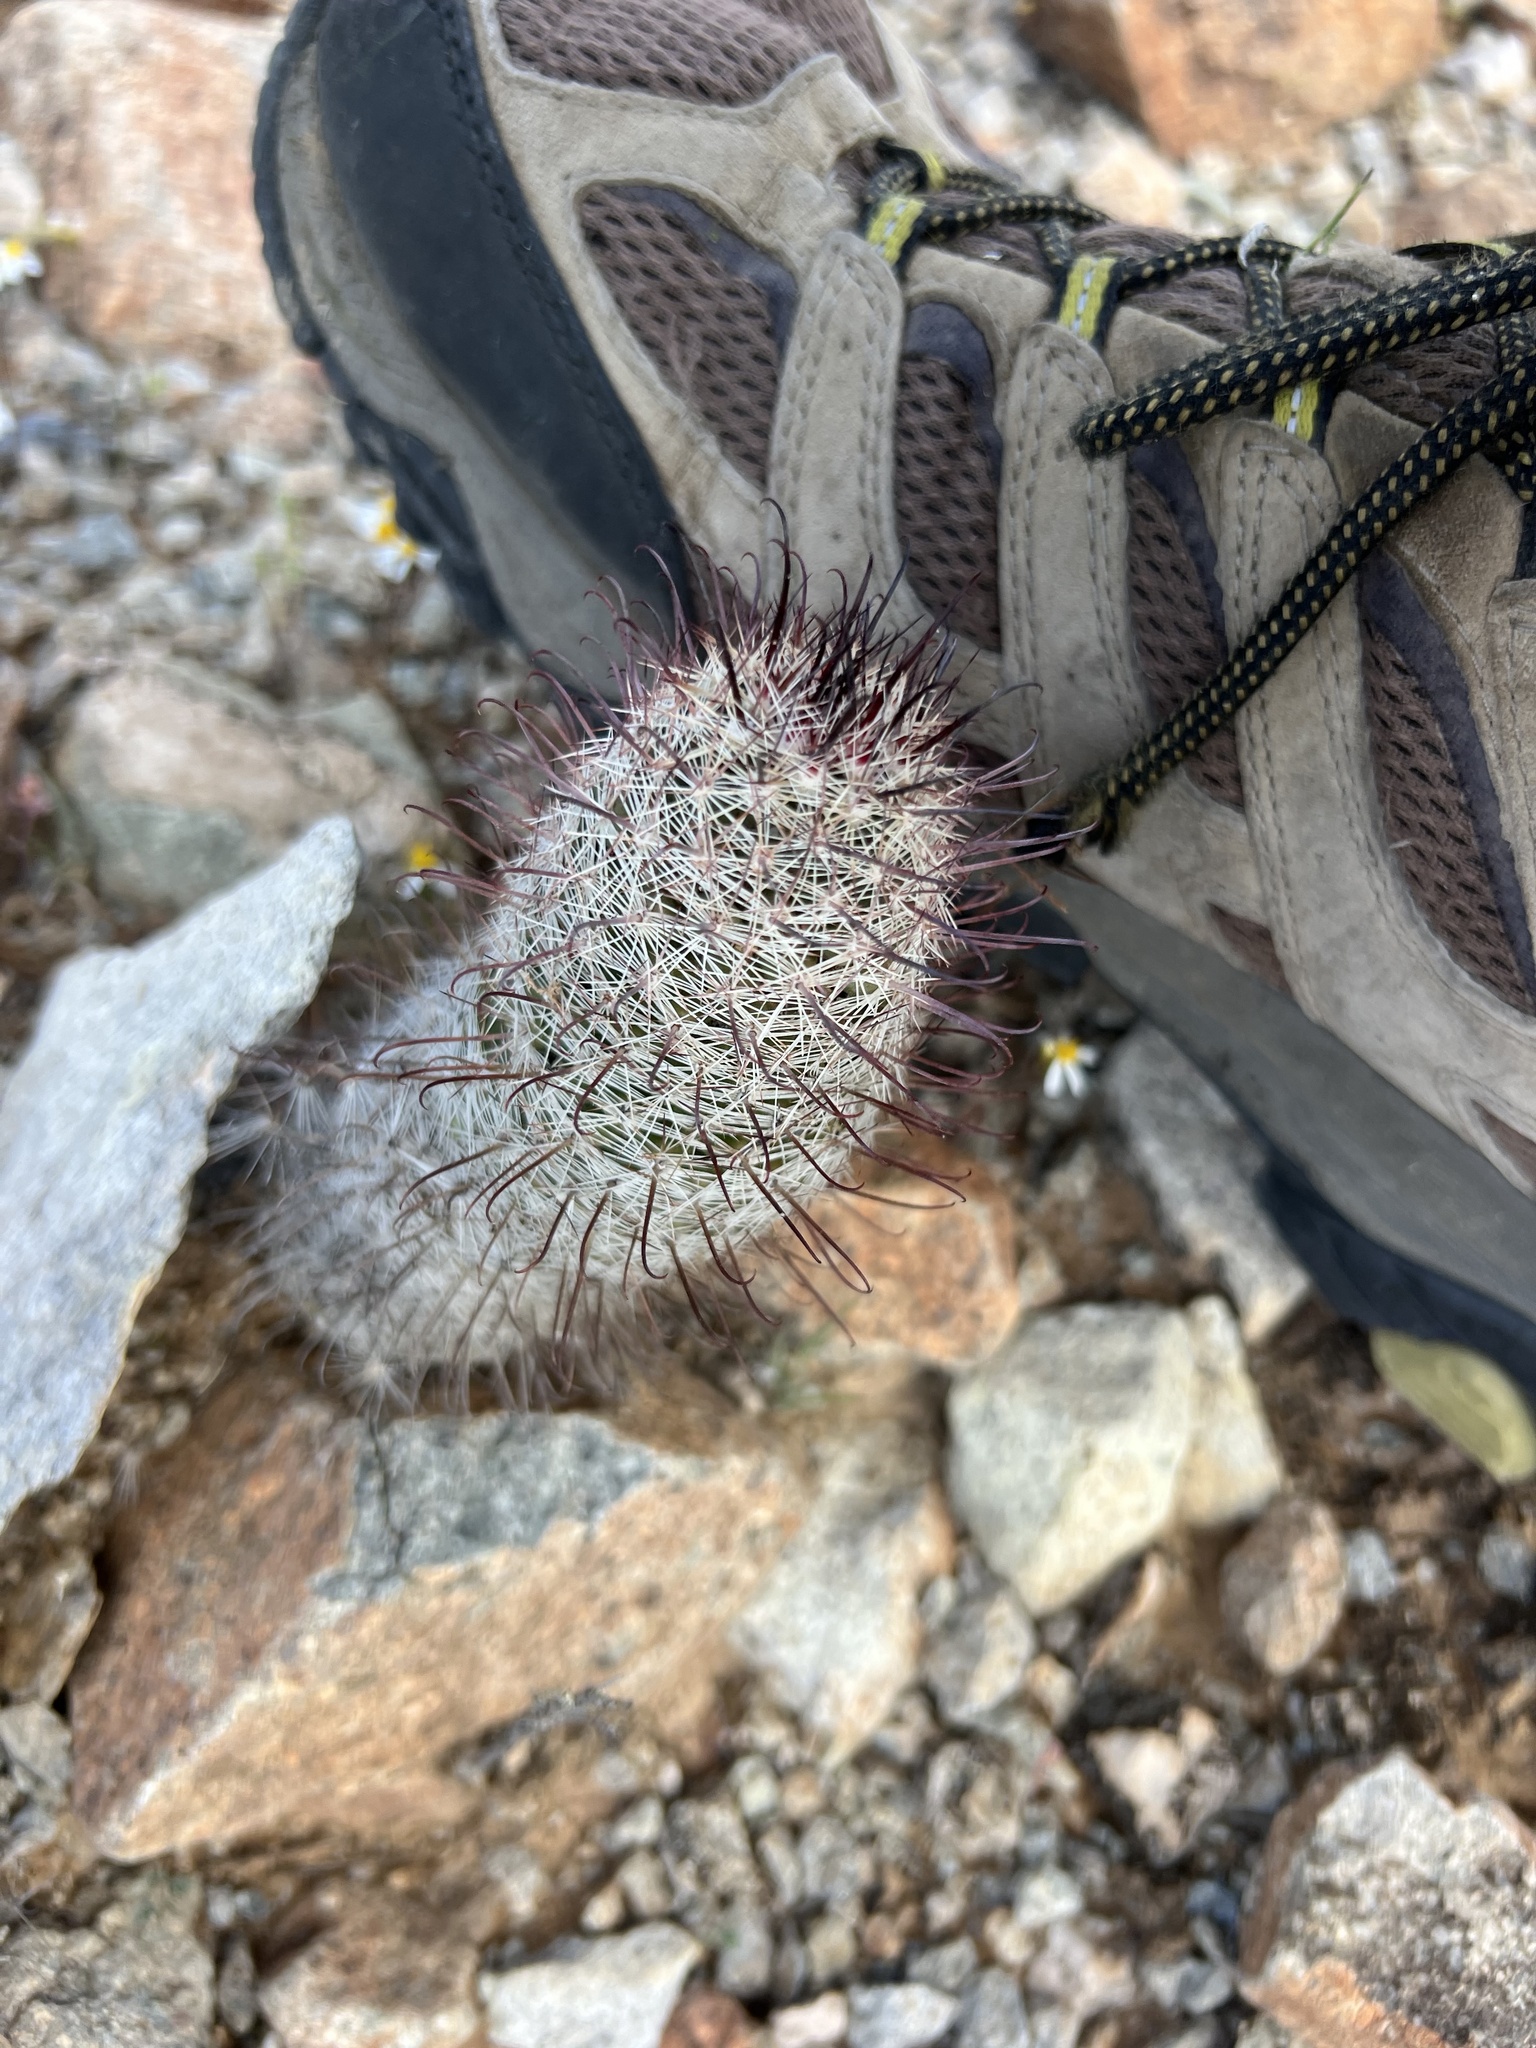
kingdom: Plantae
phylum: Tracheophyta
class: Magnoliopsida
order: Caryophyllales
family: Cactaceae
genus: Cochemiea
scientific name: Cochemiea grahamii
